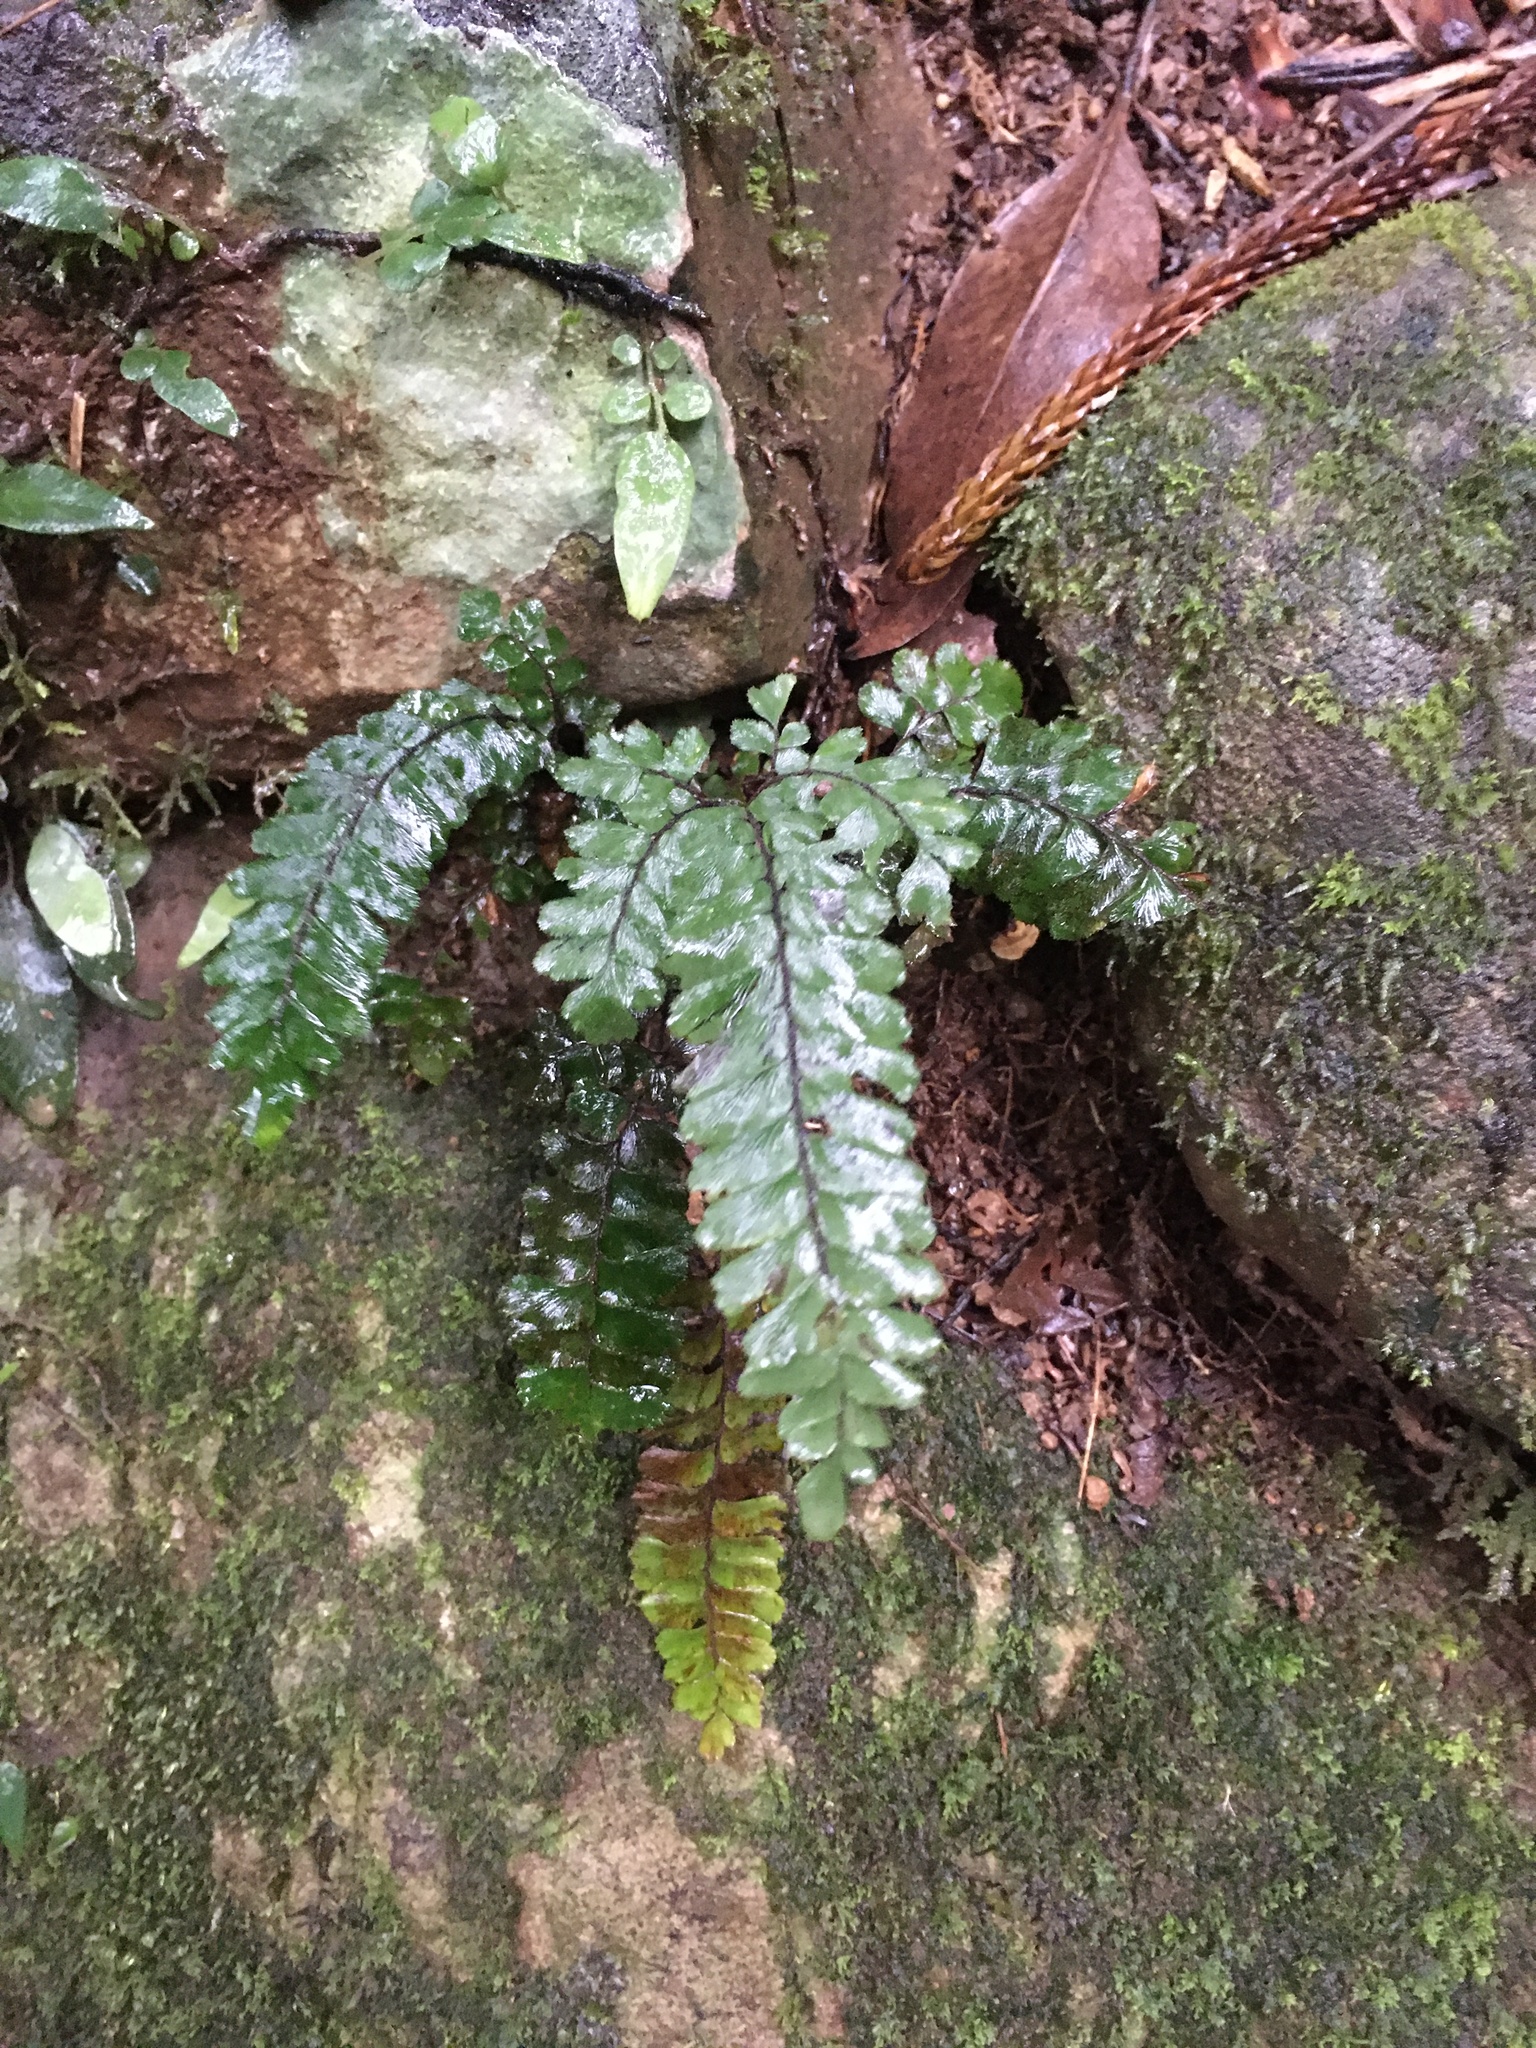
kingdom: Plantae
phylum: Tracheophyta
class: Polypodiopsida
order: Polypodiales
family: Pteridaceae
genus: Adiantum
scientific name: Adiantum hispidulum
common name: Rough maidenhair
